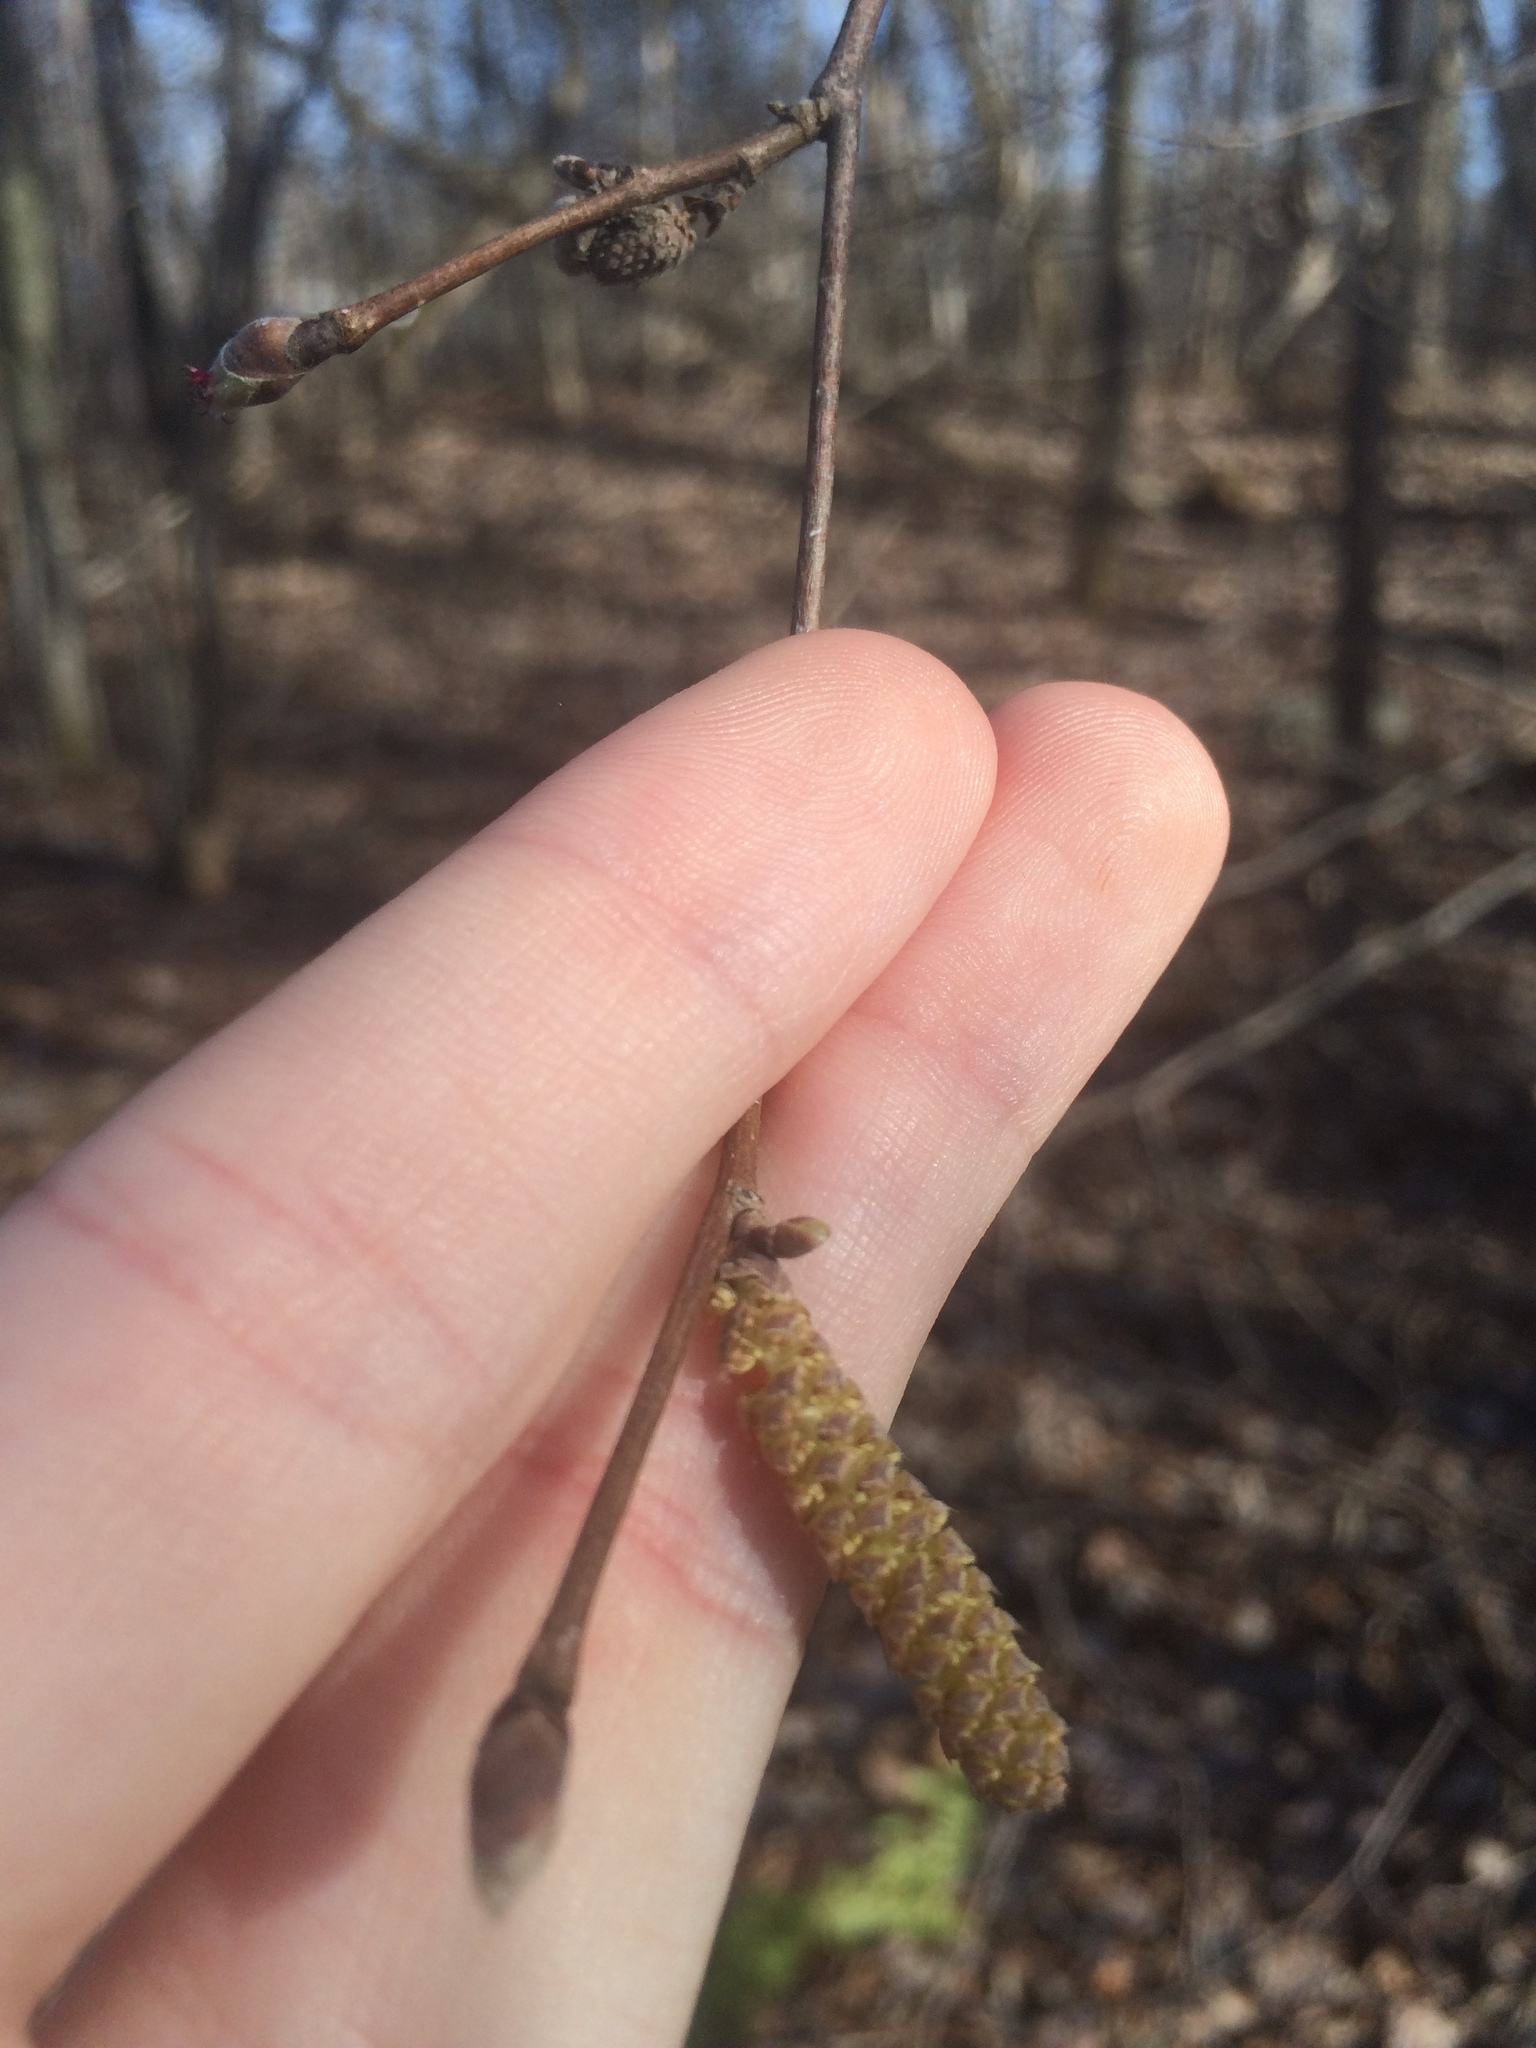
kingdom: Plantae
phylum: Tracheophyta
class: Magnoliopsida
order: Fagales
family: Betulaceae
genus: Corylus
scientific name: Corylus cornuta
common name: Beaked hazel
